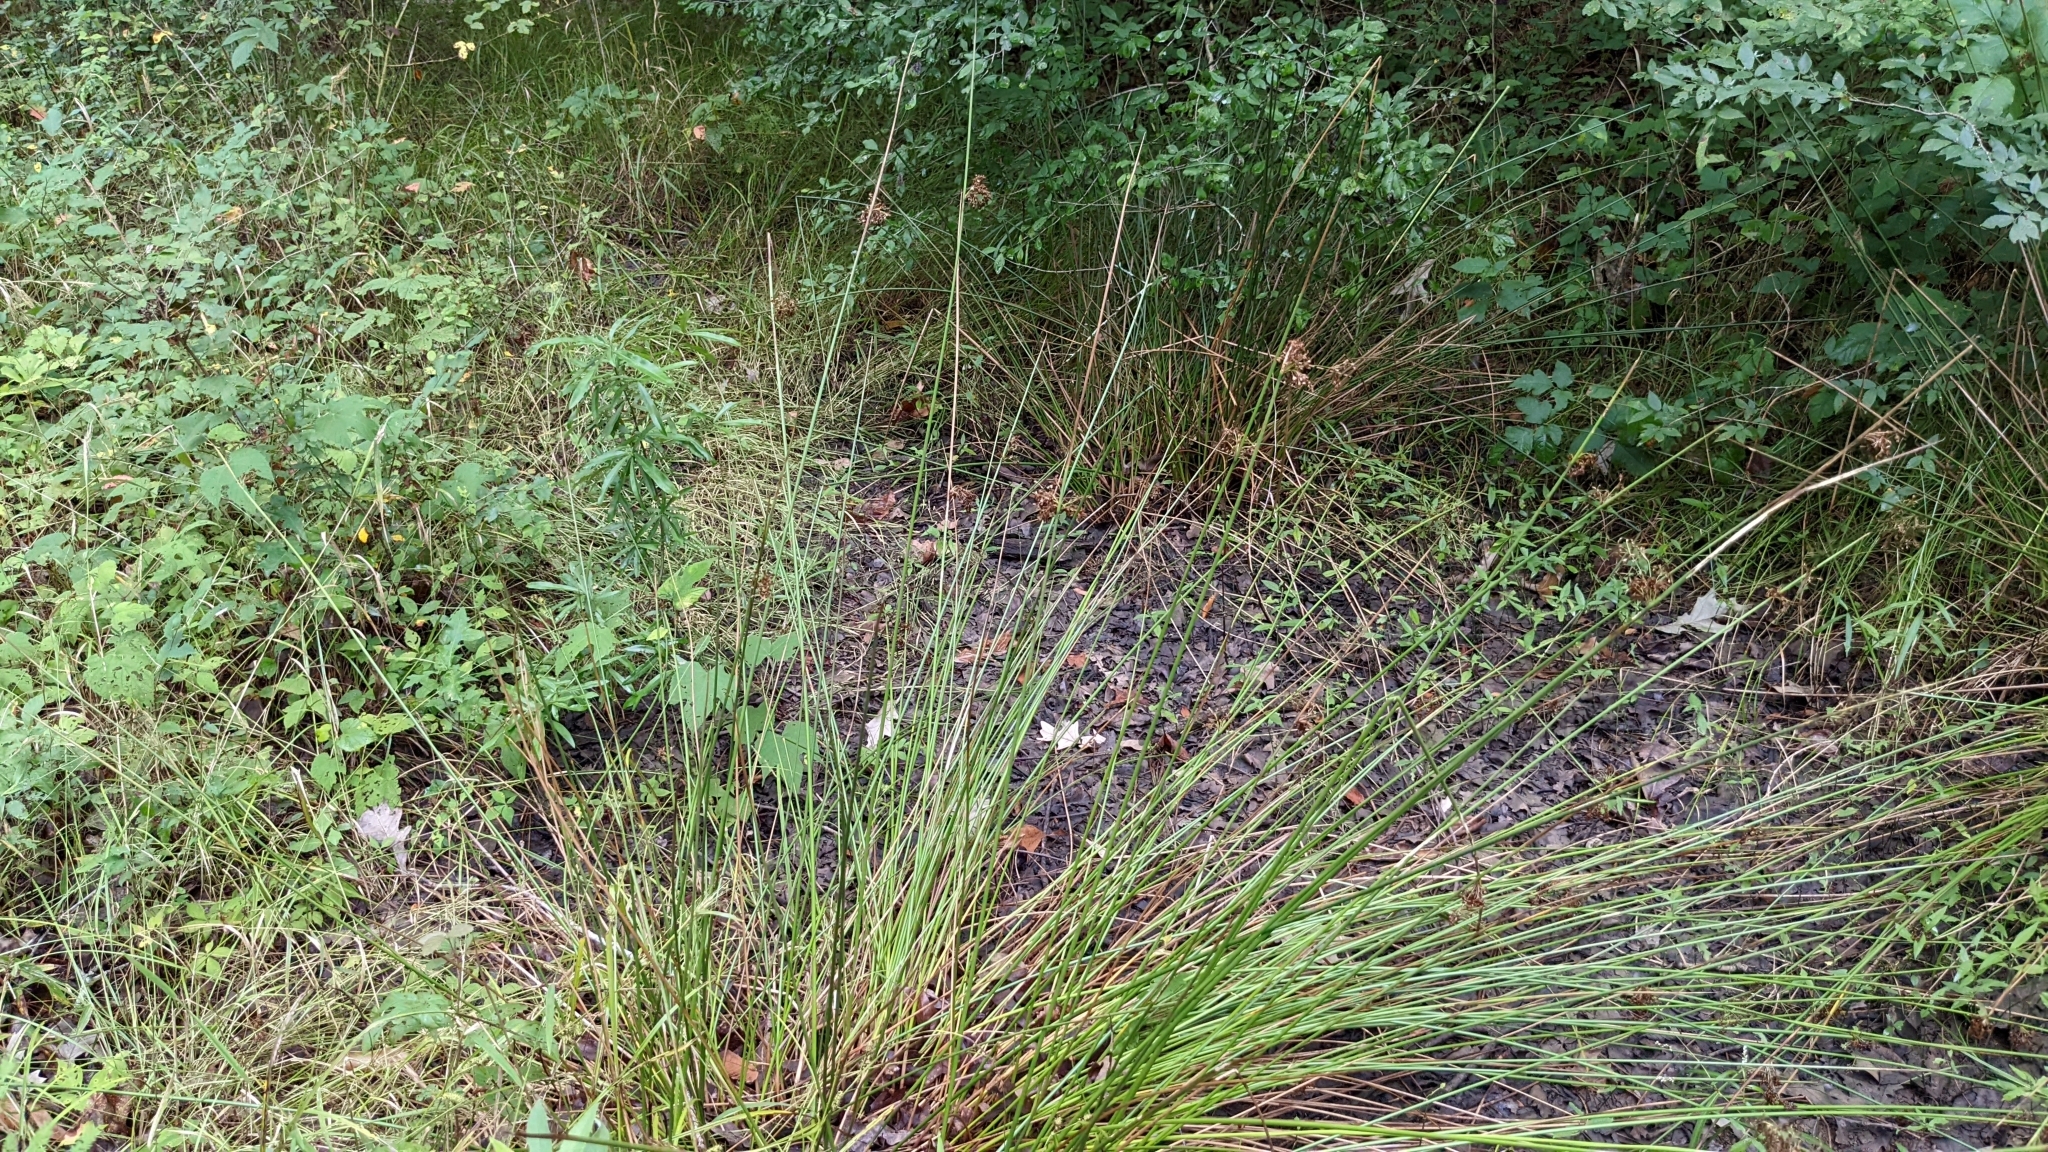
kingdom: Plantae
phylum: Tracheophyta
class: Liliopsida
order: Poales
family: Juncaceae
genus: Juncus
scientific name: Juncus effusus
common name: Soft rush
